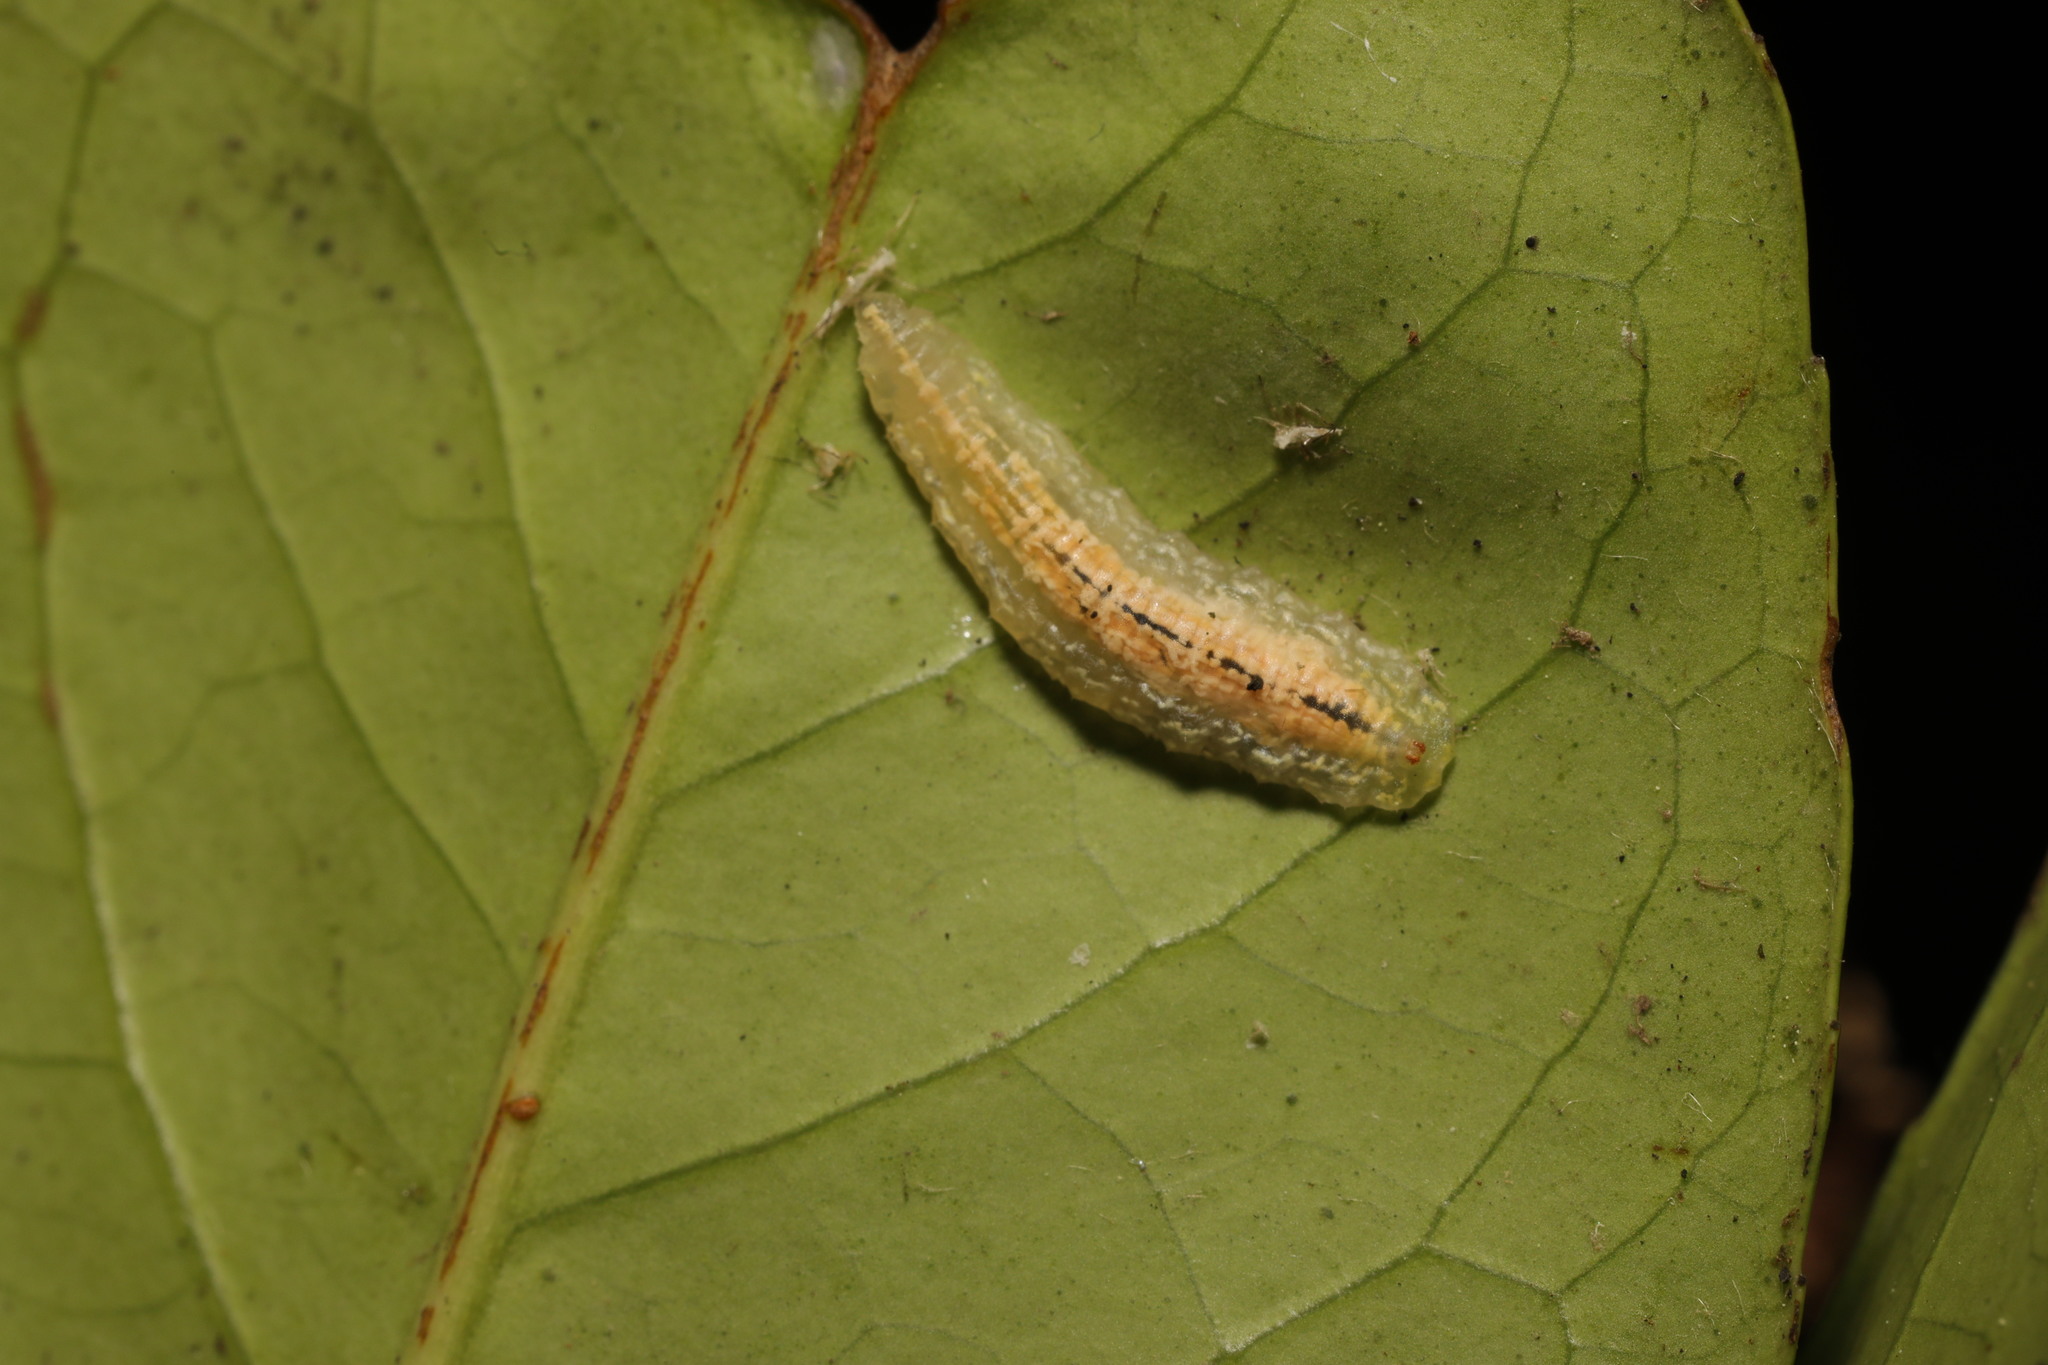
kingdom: Animalia
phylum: Arthropoda
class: Insecta
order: Diptera
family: Syrphidae
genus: Syrphus
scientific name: Syrphus
